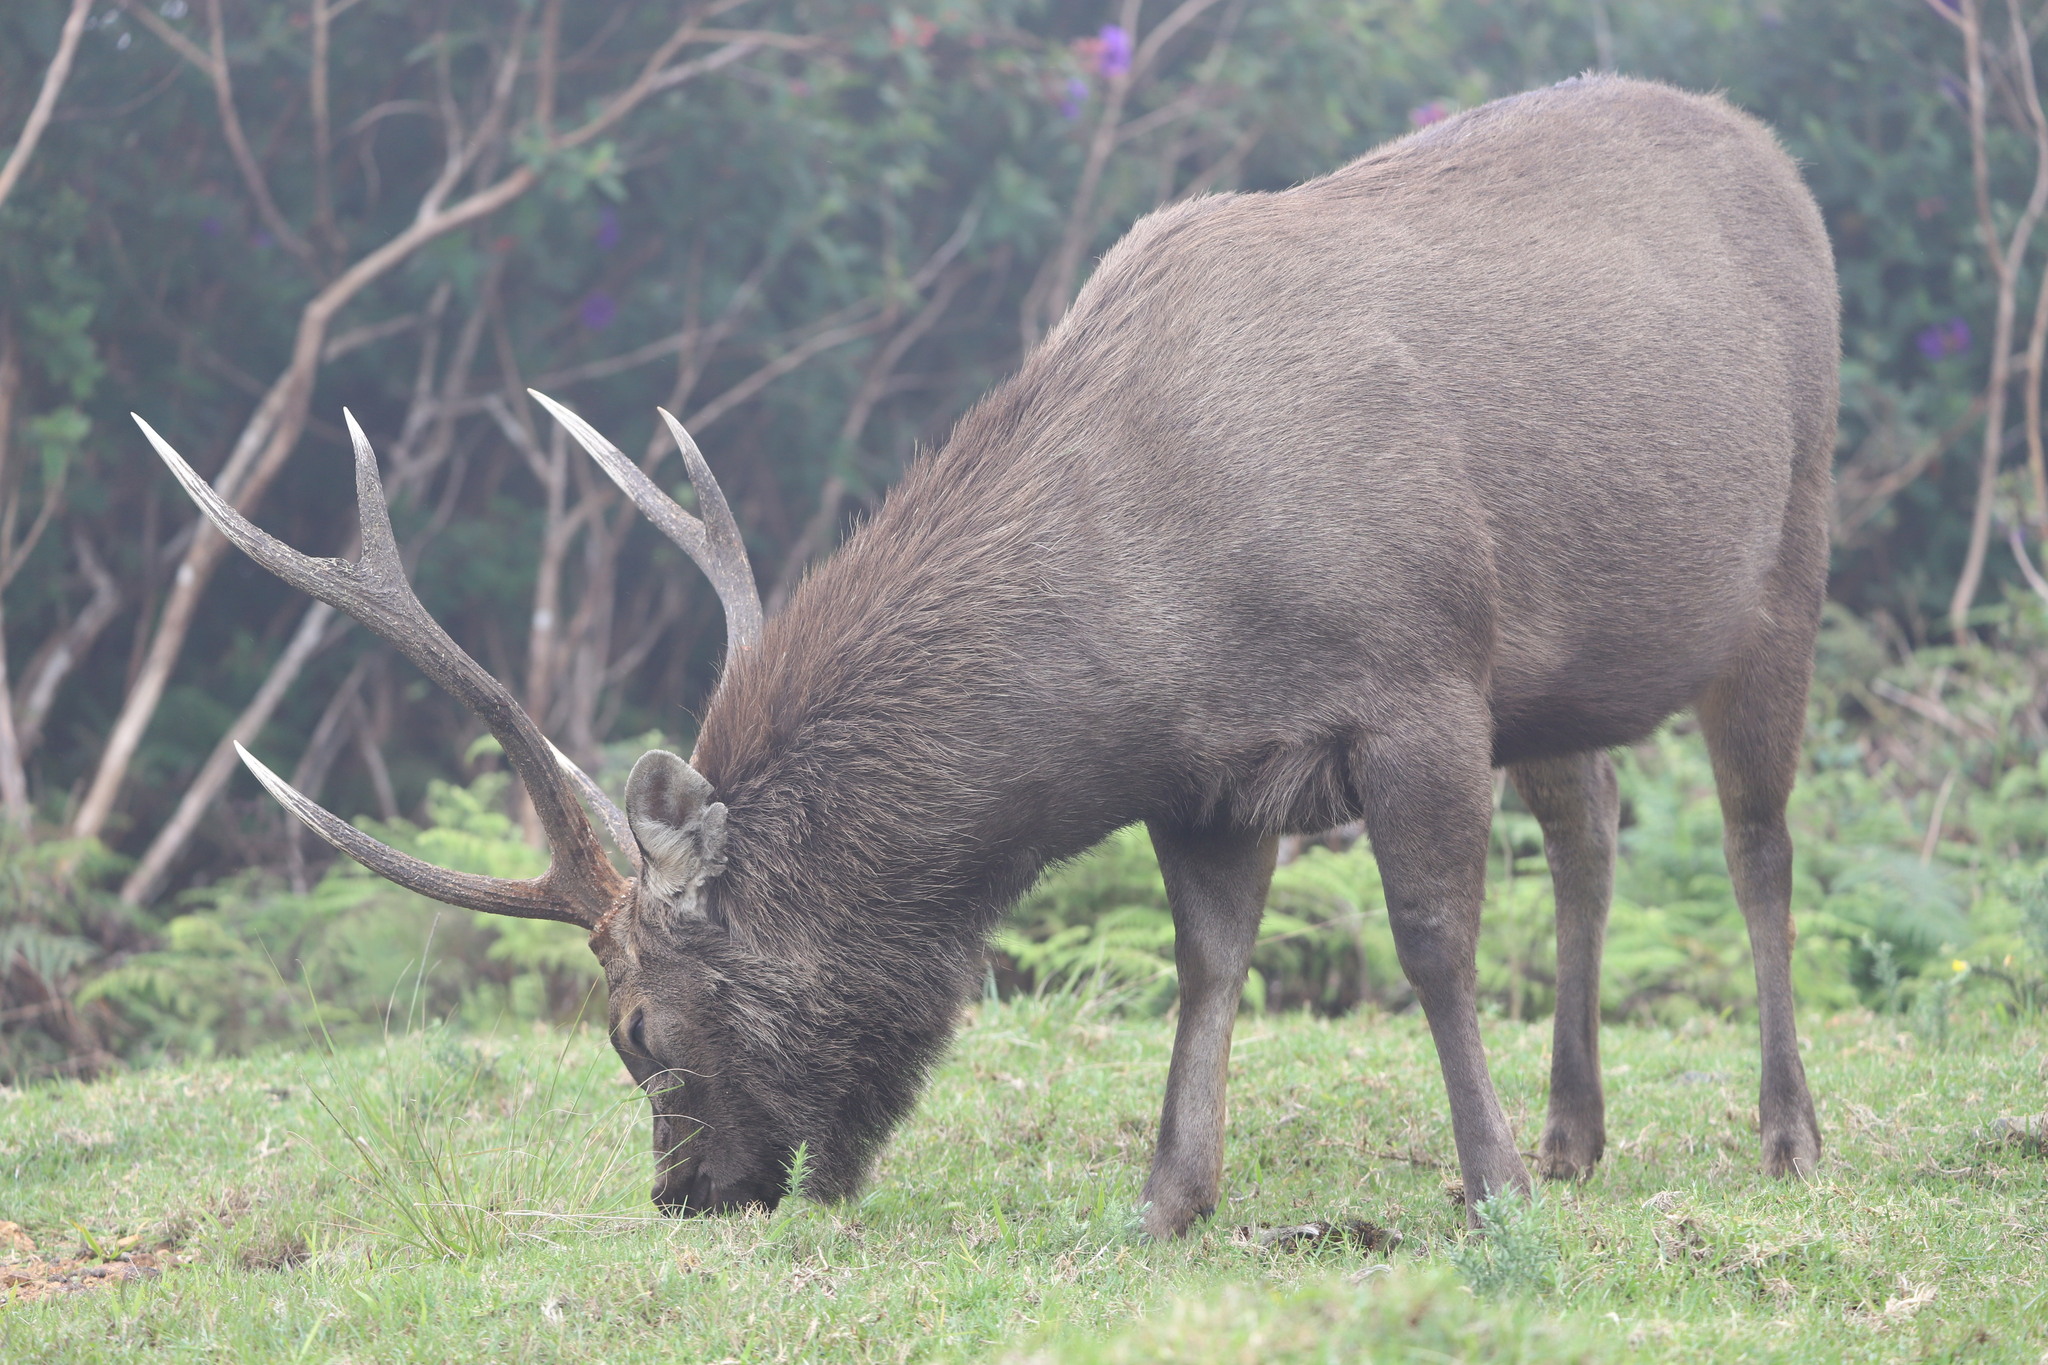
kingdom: Animalia
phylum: Chordata
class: Mammalia
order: Artiodactyla
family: Cervidae
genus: Rusa
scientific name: Rusa unicolor
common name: Sambar
